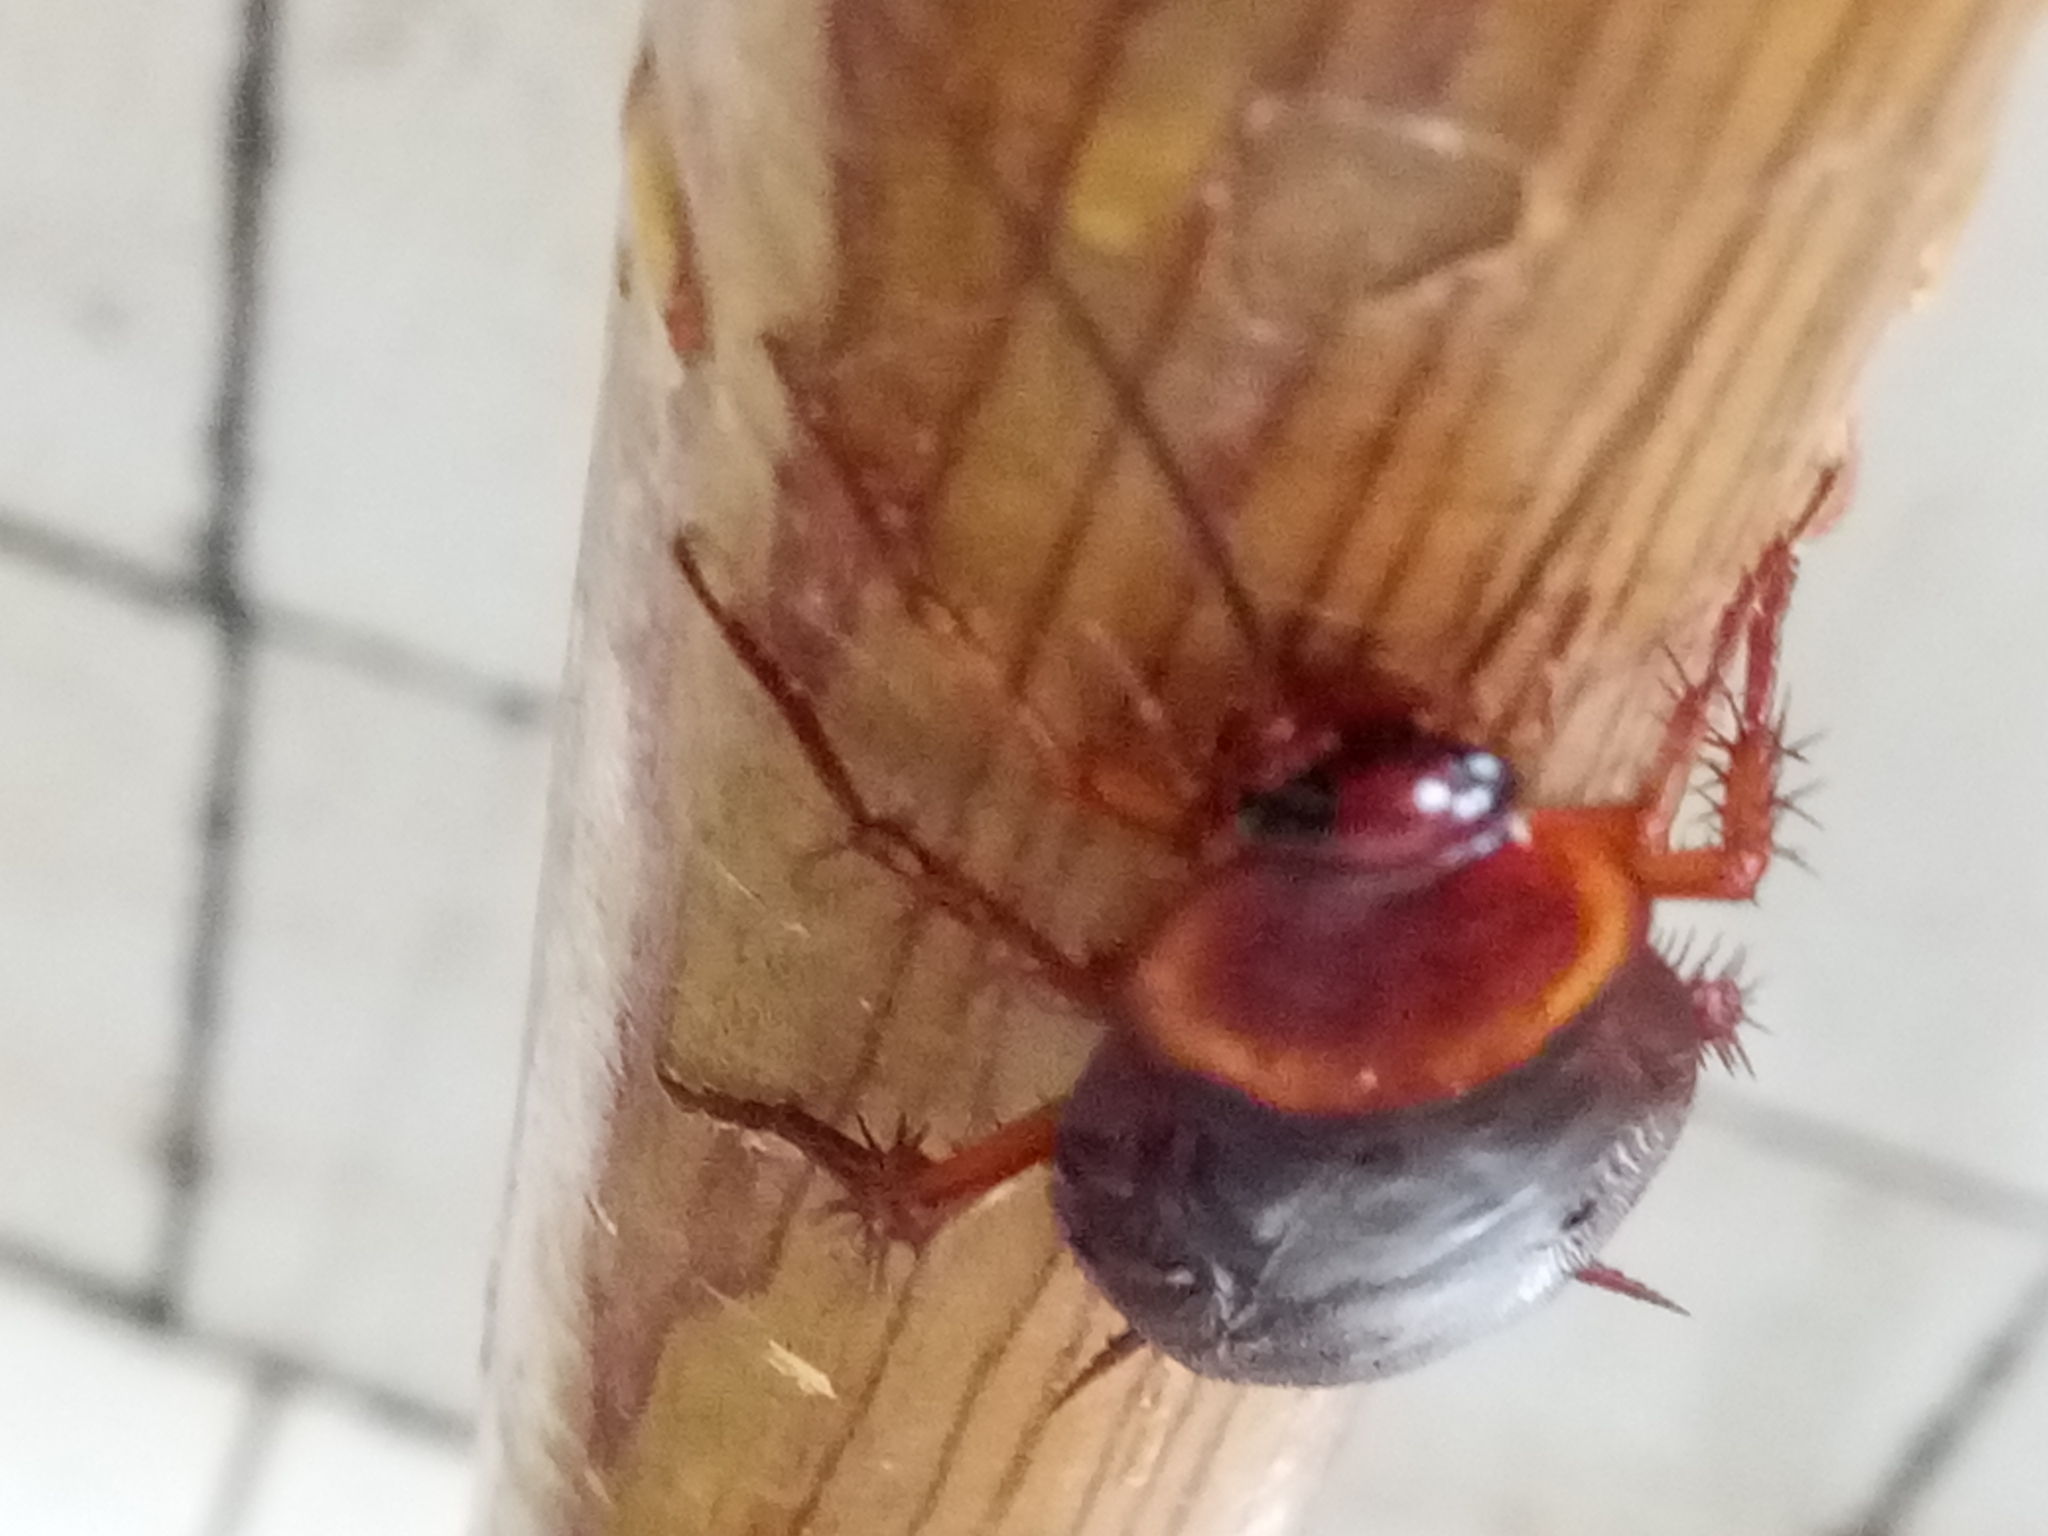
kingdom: Animalia
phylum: Arthropoda
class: Insecta
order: Blattodea
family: Blattidae
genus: Periplaneta
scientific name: Periplaneta americana
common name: American cockroach
